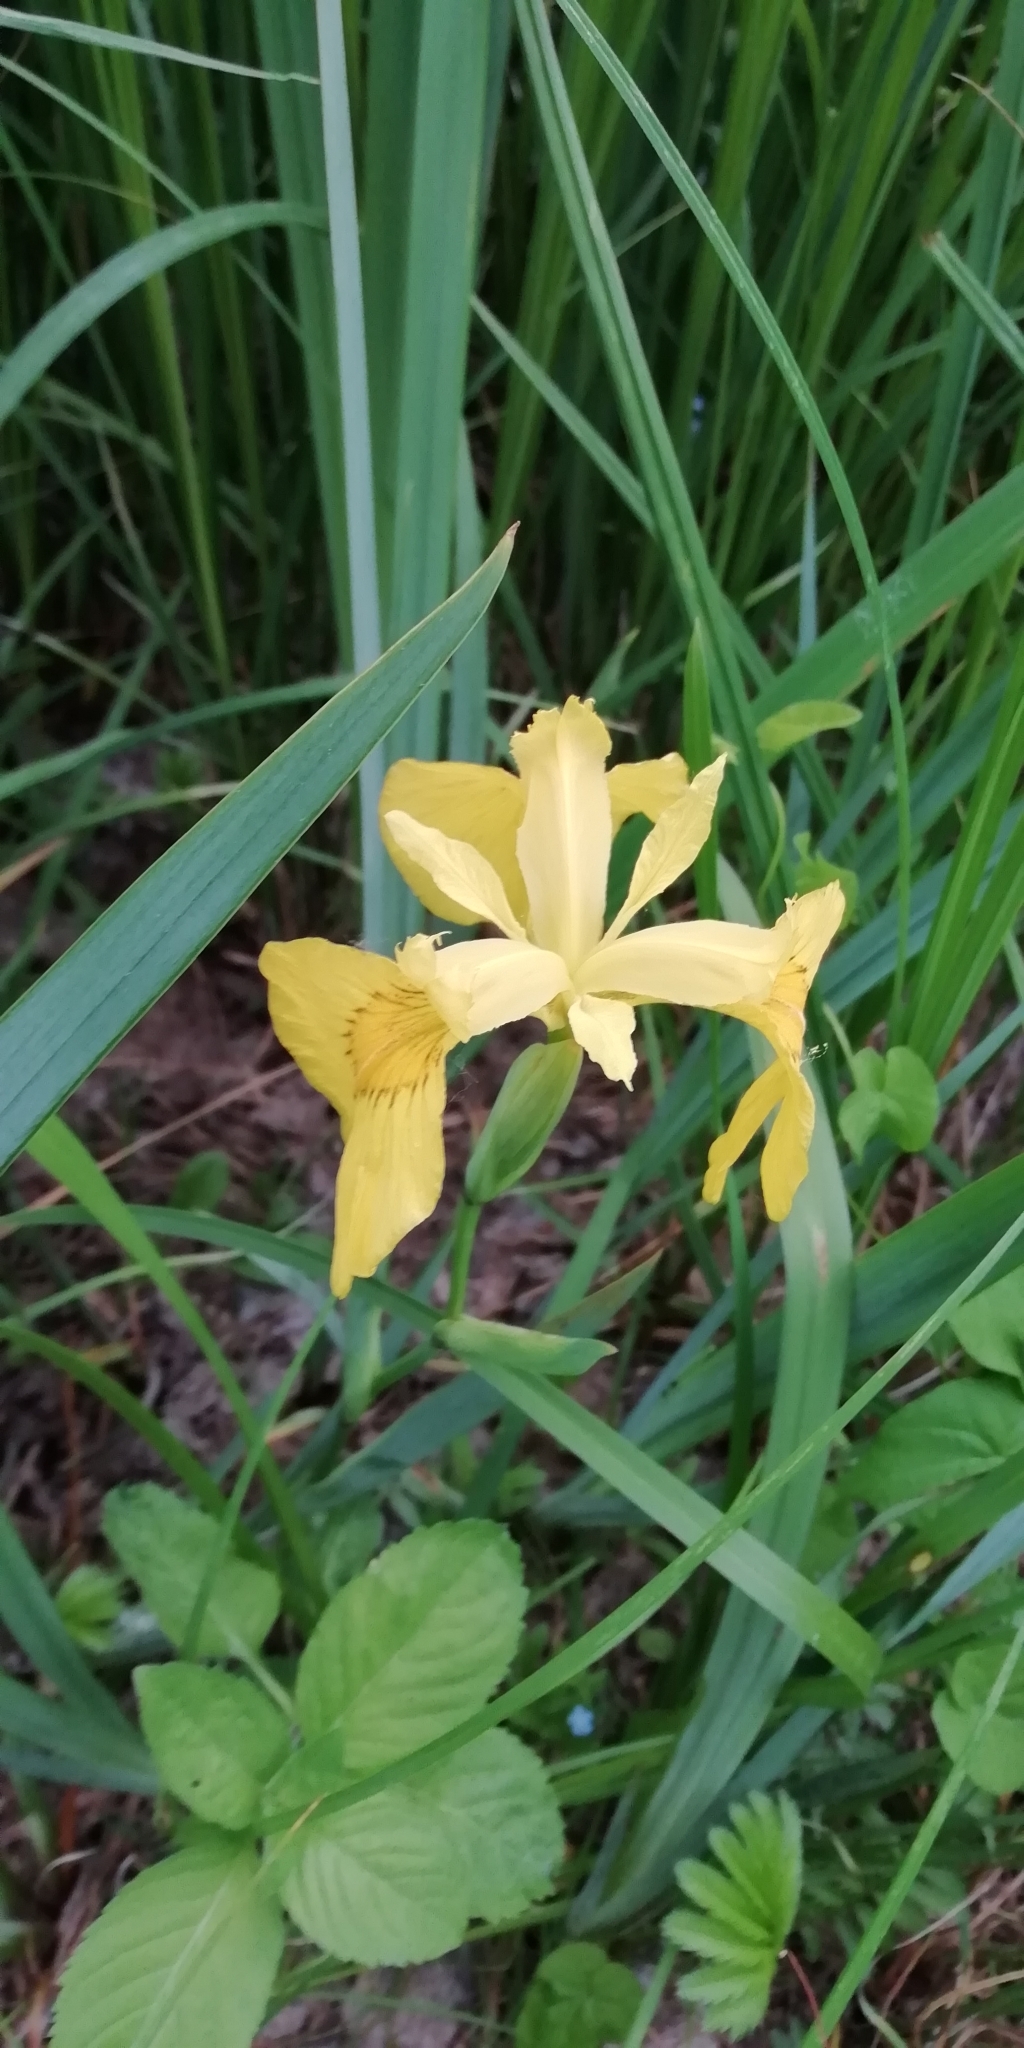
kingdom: Plantae
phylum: Tracheophyta
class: Liliopsida
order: Asparagales
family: Iridaceae
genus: Iris
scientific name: Iris pseudacorus
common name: Yellow flag
